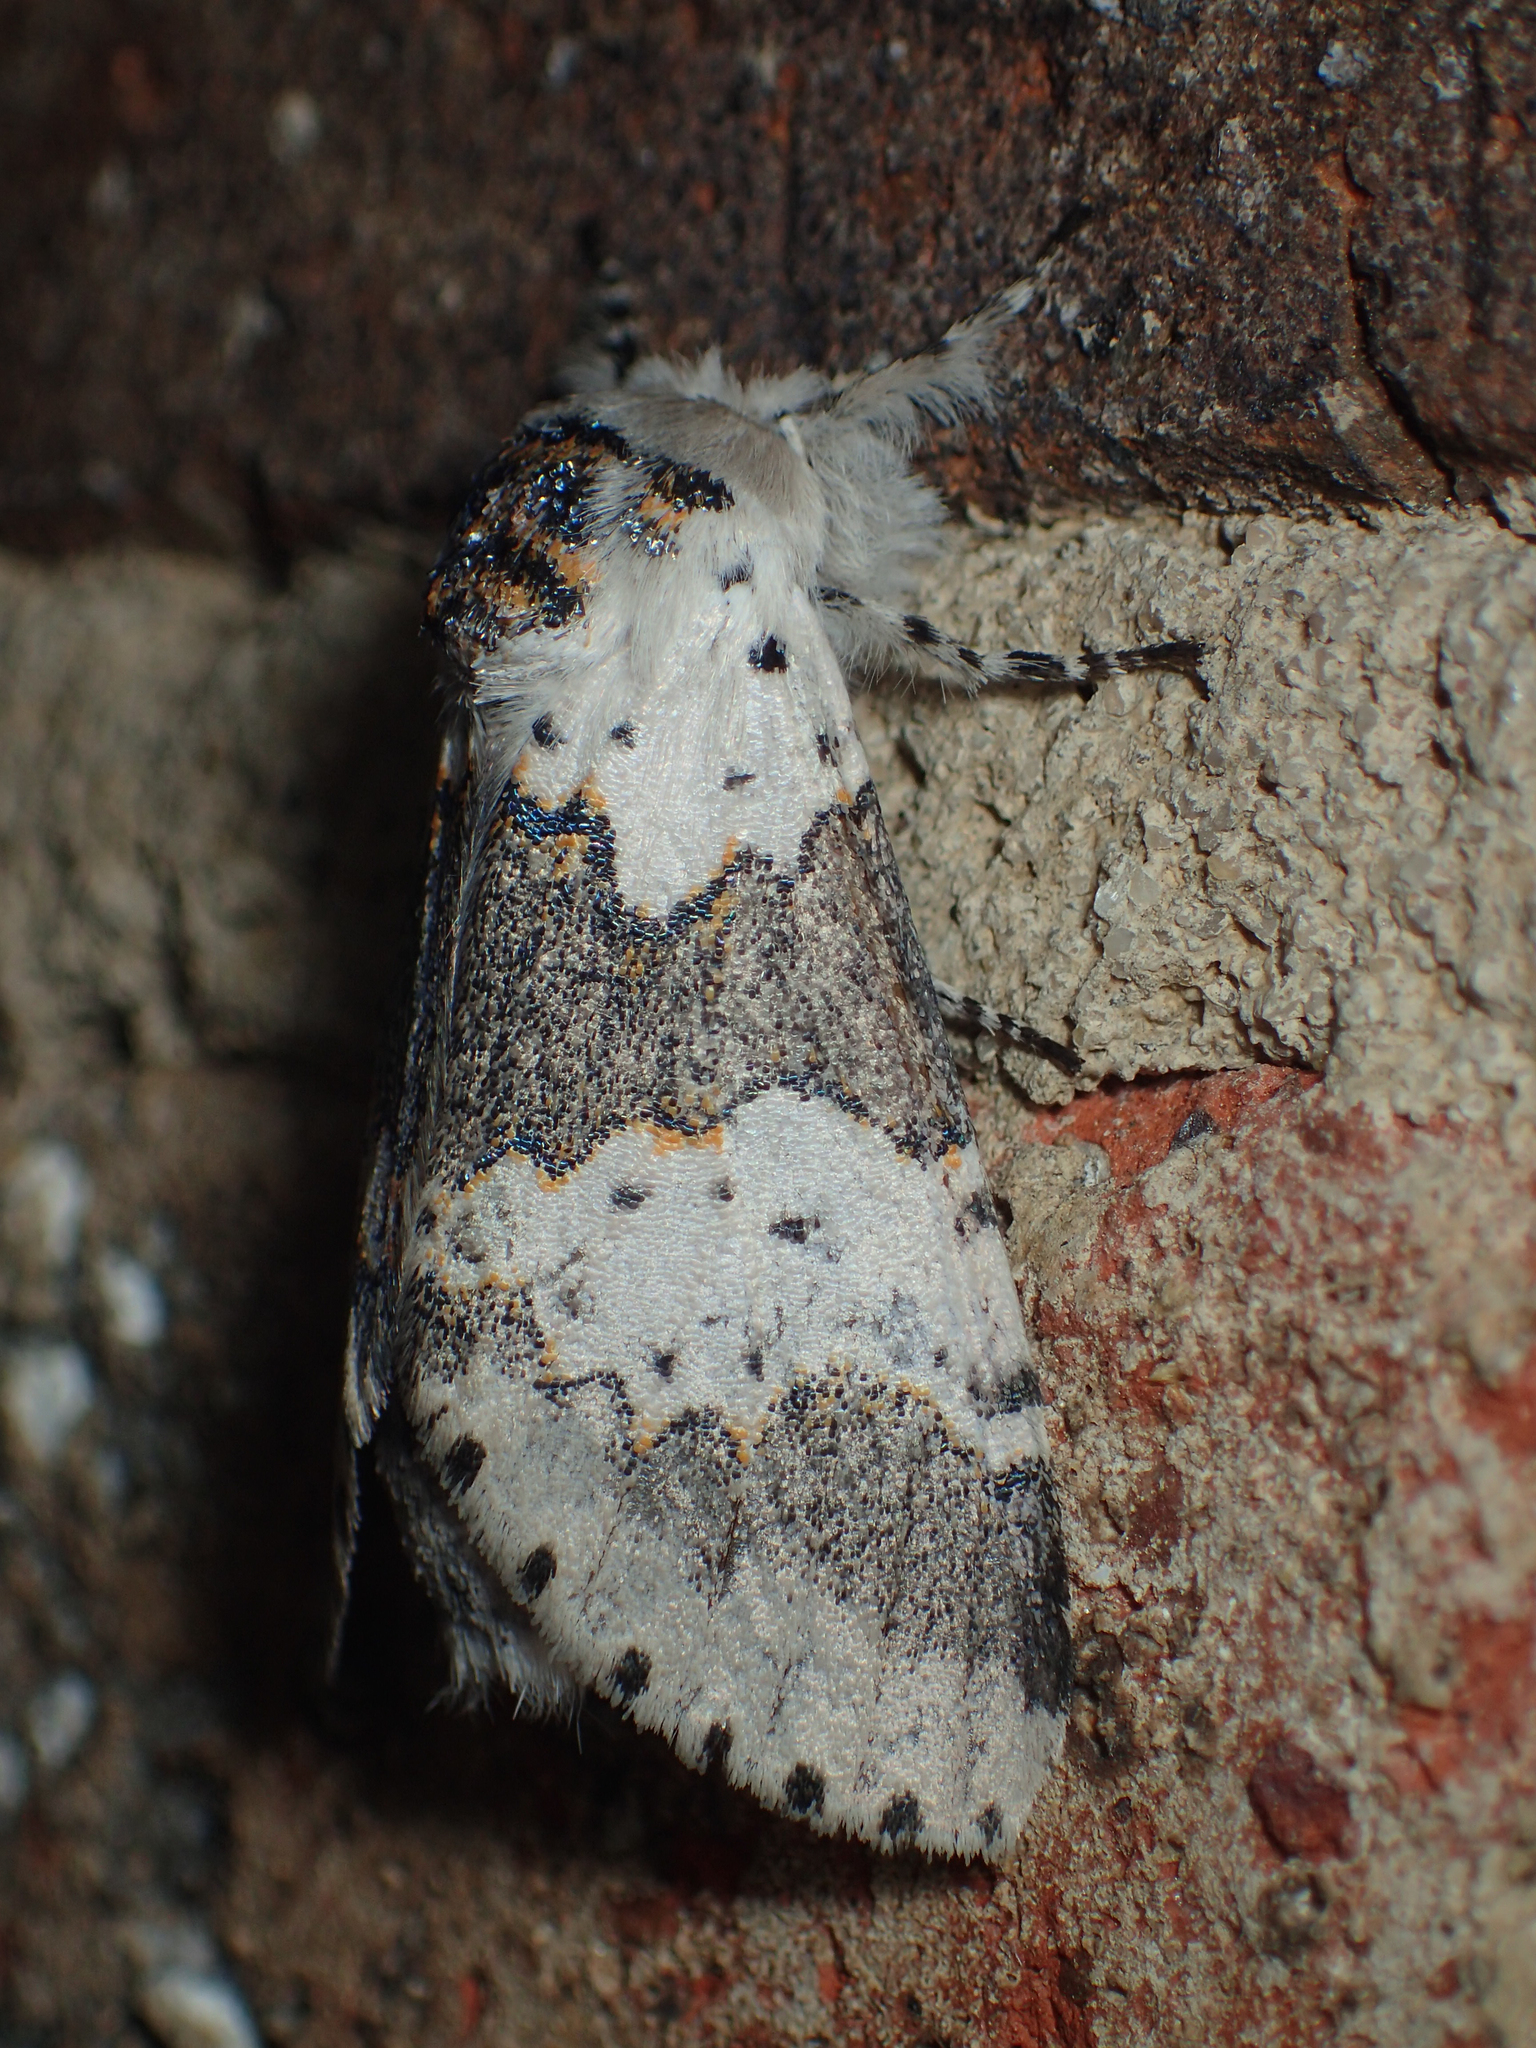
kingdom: Animalia
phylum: Arthropoda
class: Insecta
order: Lepidoptera
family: Notodontidae
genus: Furcula
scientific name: Furcula borealis
